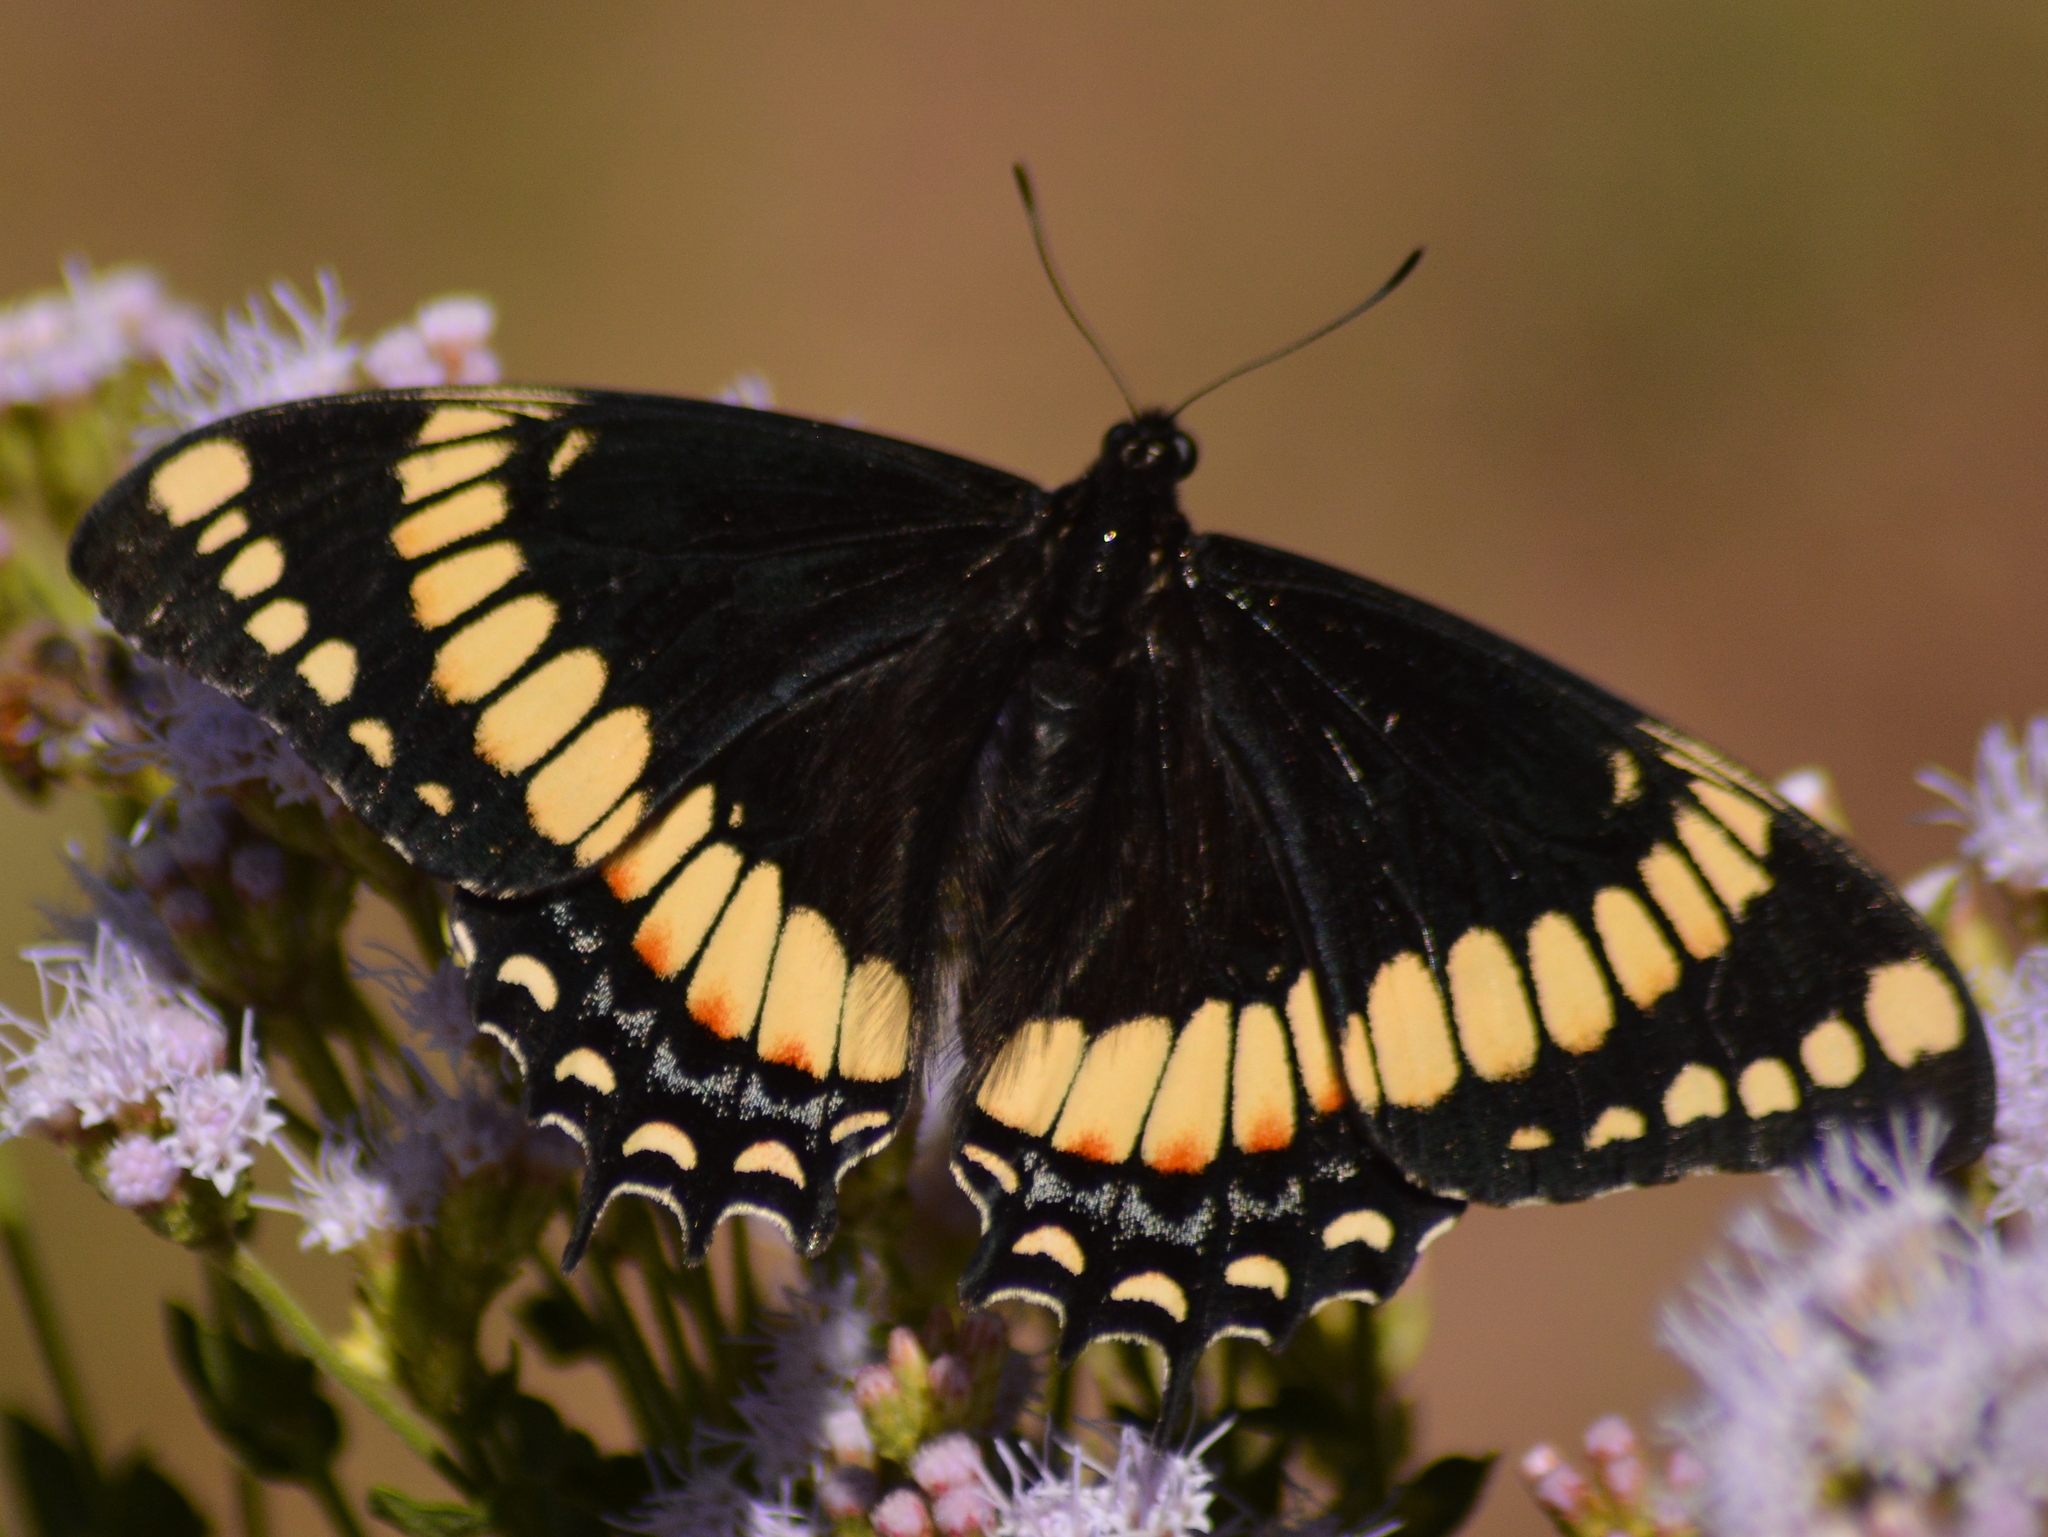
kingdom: Animalia
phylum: Arthropoda
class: Insecta
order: Lepidoptera
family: Papilionidae
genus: Papilio
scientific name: Papilio scamander
